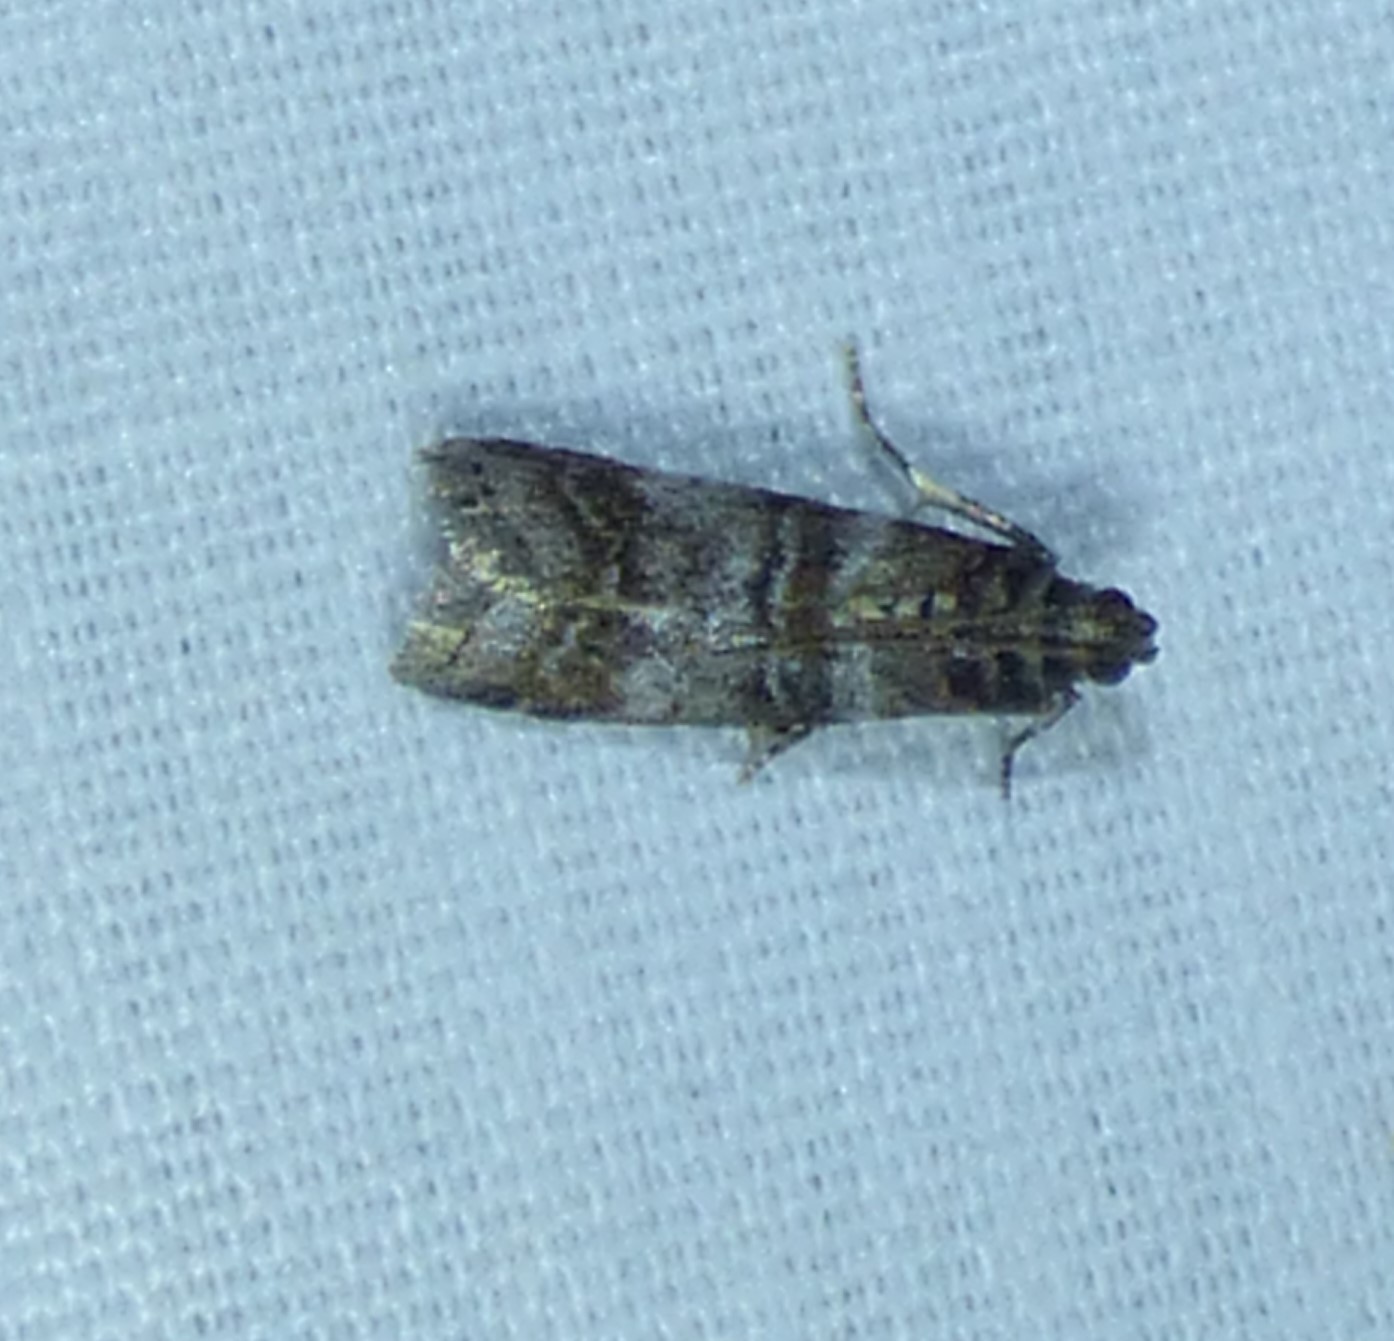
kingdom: Animalia
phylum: Arthropoda
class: Insecta
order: Lepidoptera
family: Pyralidae
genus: Sciota
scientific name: Sciota uvinella
